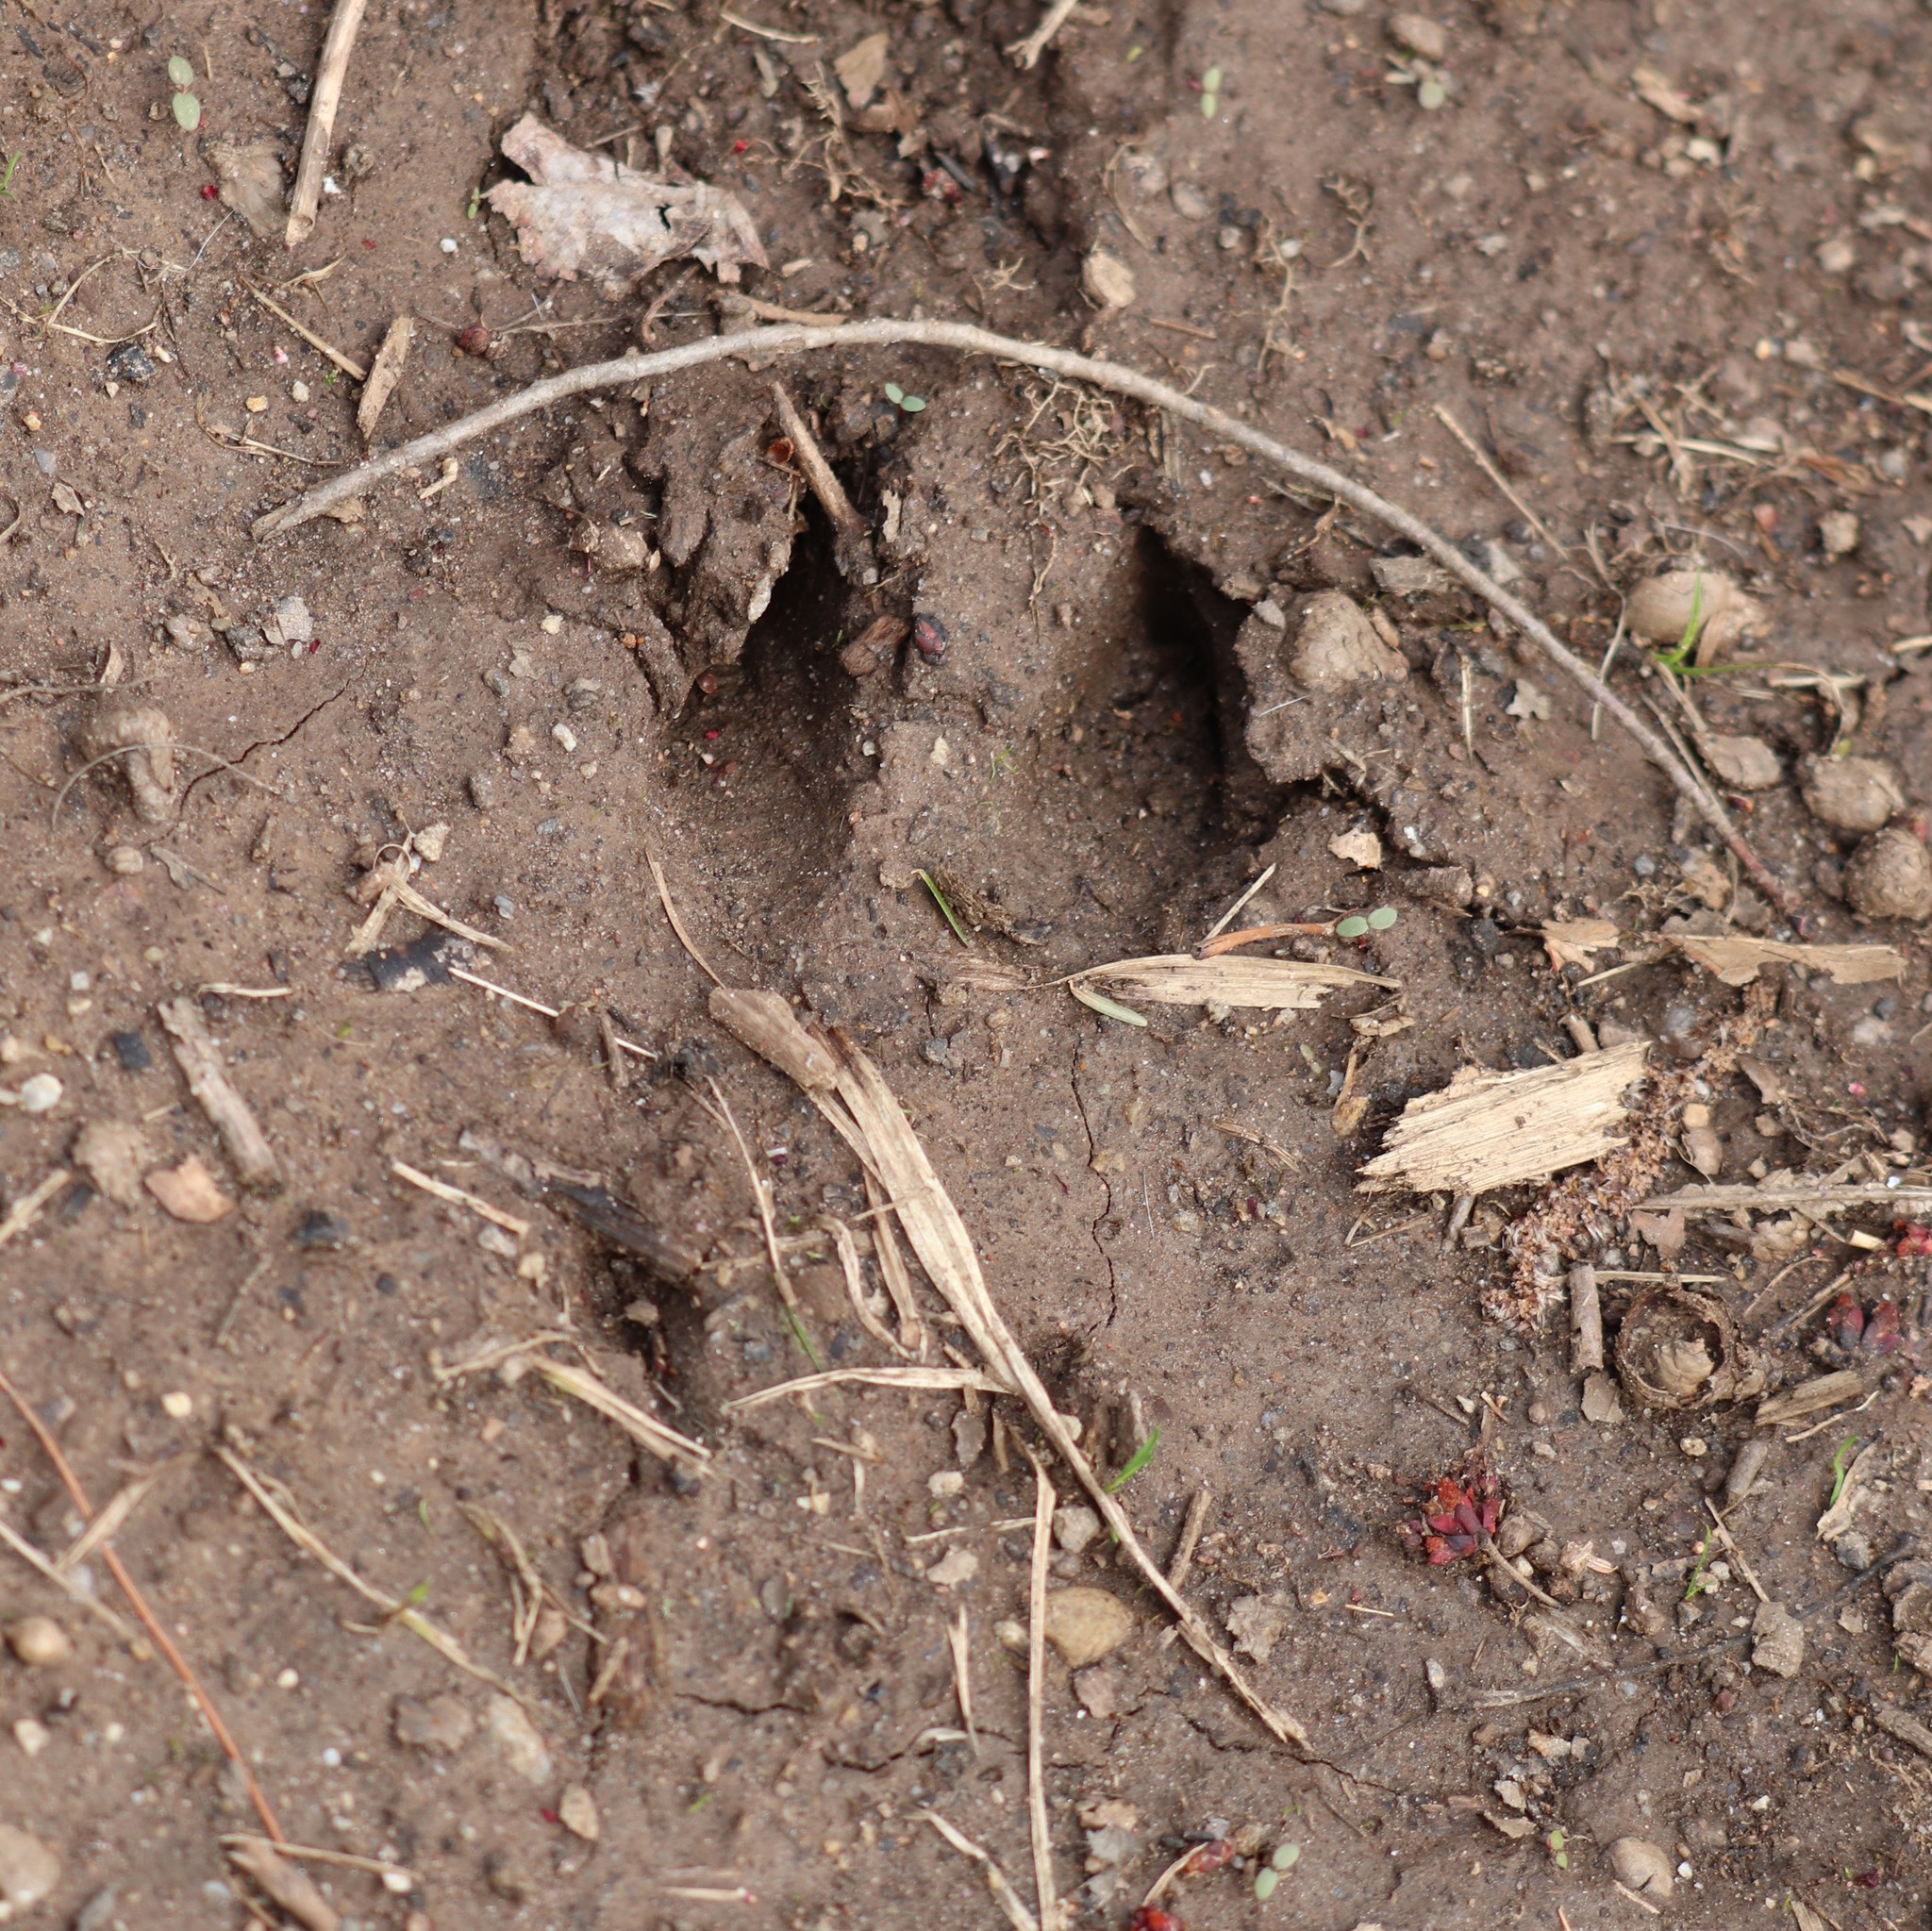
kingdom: Animalia
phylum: Chordata
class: Mammalia
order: Artiodactyla
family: Cervidae
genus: Odocoileus
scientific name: Odocoileus virginianus
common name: White-tailed deer
